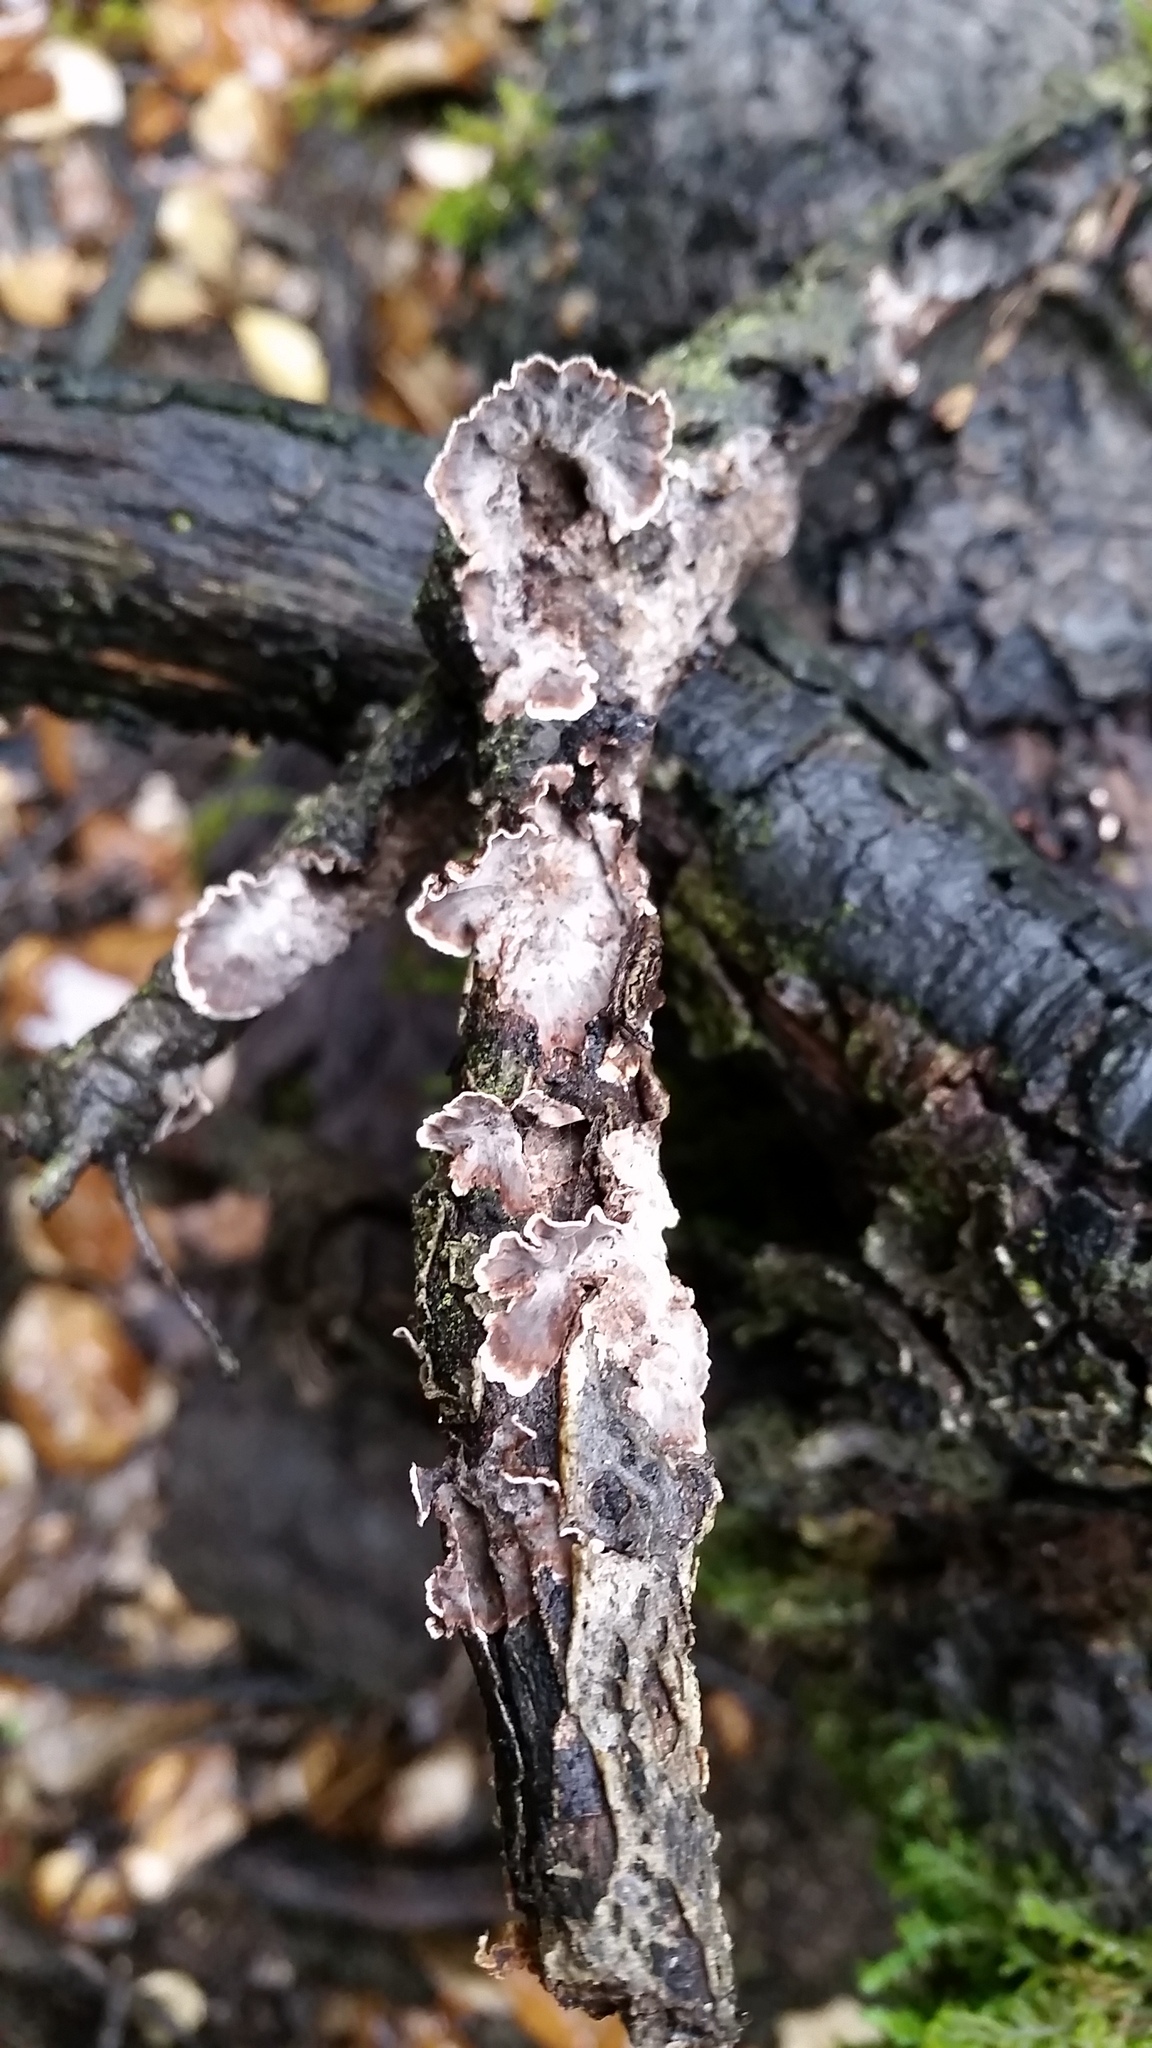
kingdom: Fungi
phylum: Basidiomycota
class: Agaricomycetes
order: Russulales
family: Peniophoraceae
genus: Peniophora
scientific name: Peniophora albobadia
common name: Giraffe spots
